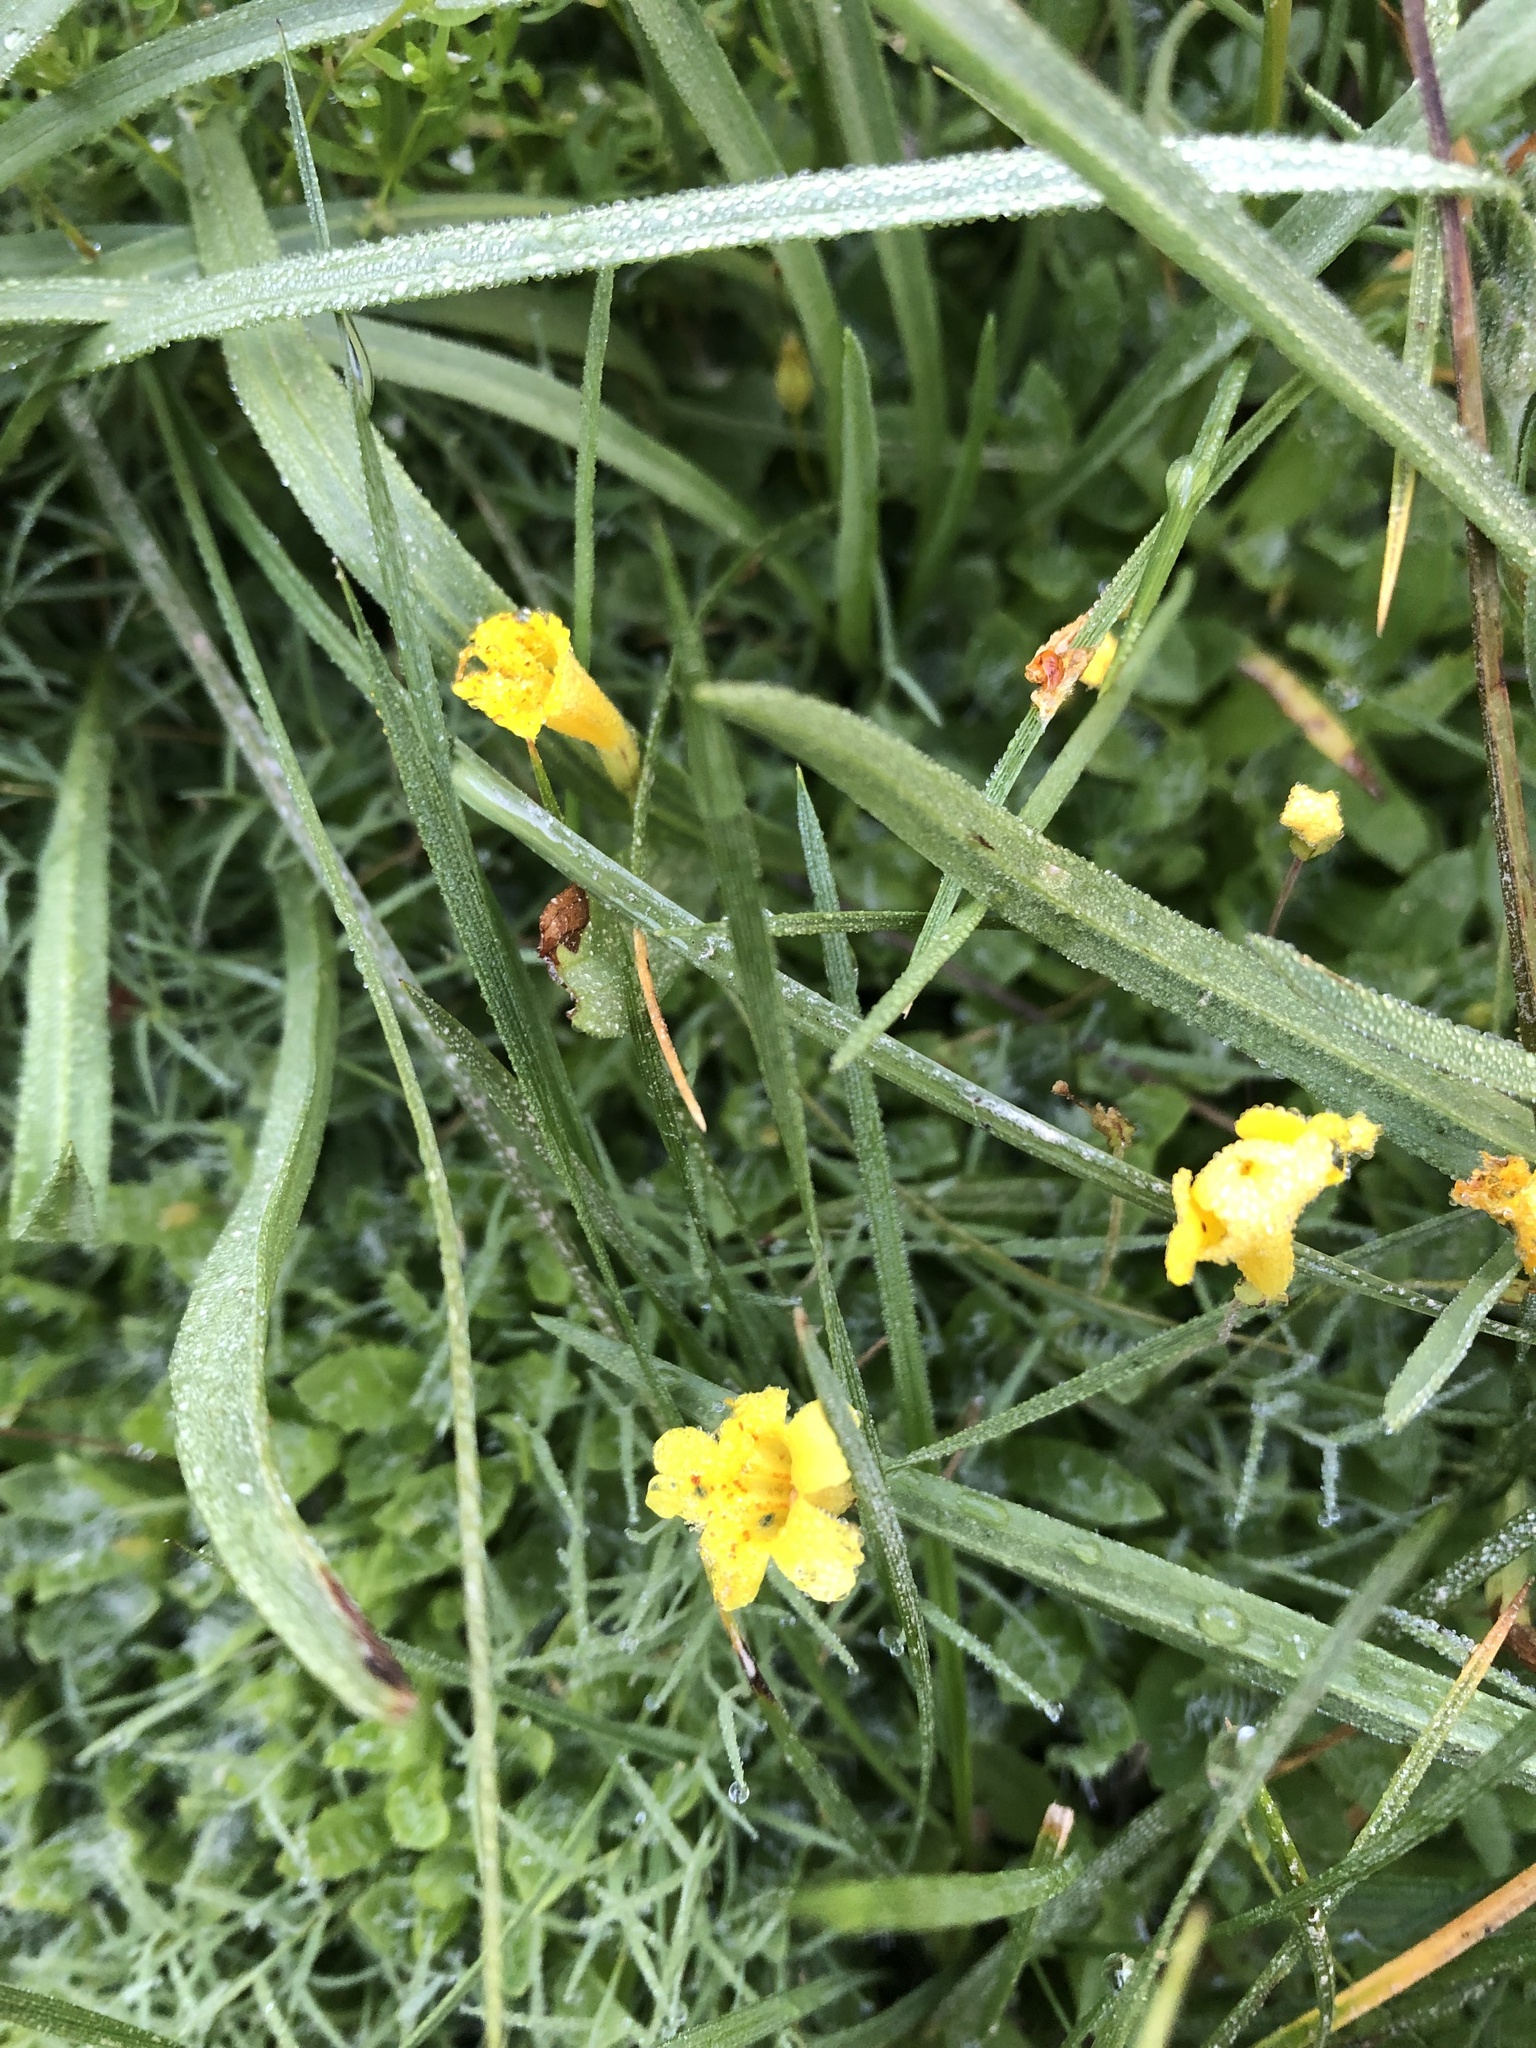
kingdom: Plantae
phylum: Tracheophyta
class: Magnoliopsida
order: Lamiales
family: Phrymaceae
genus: Erythranthe
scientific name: Erythranthe primuloides
